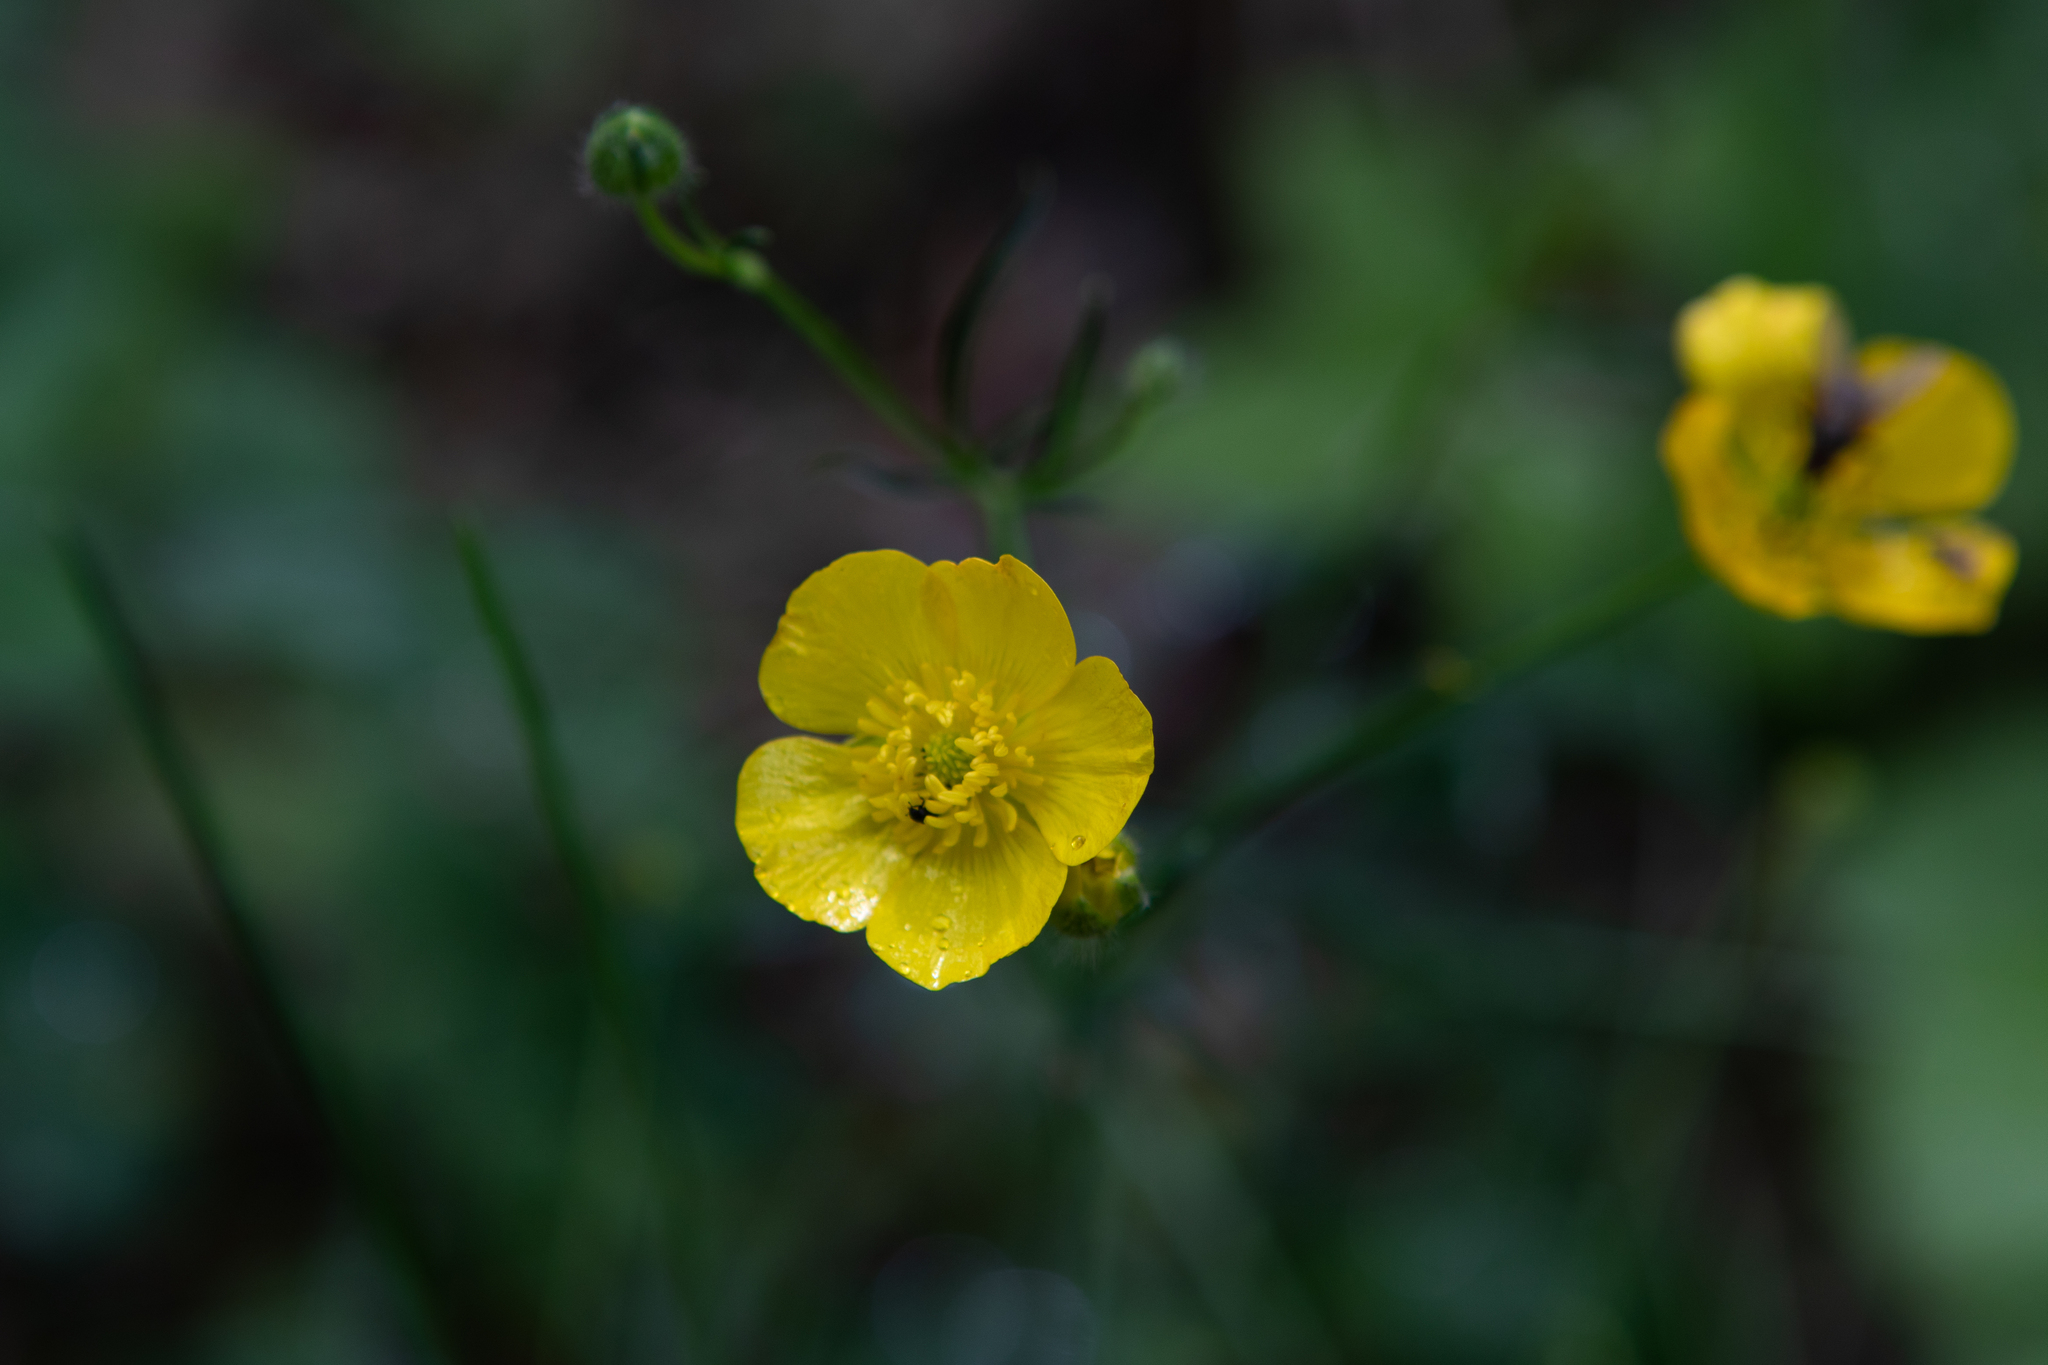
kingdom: Plantae
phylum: Tracheophyta
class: Magnoliopsida
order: Ranunculales
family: Ranunculaceae
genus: Ranunculus
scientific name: Ranunculus polyanthemos
